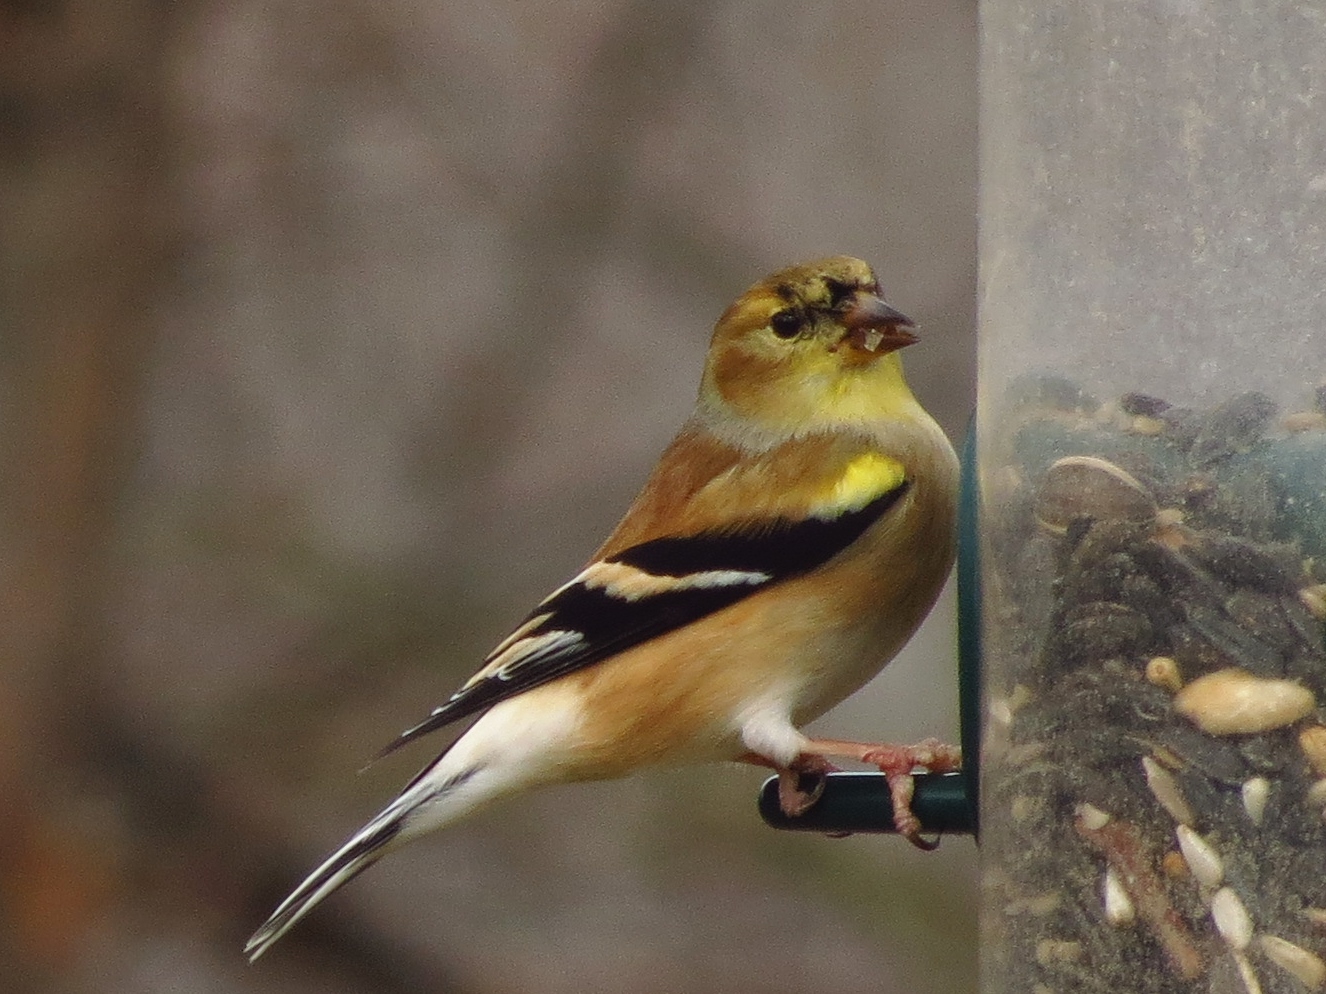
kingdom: Animalia
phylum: Chordata
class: Aves
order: Passeriformes
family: Fringillidae
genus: Spinus
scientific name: Spinus tristis
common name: American goldfinch
